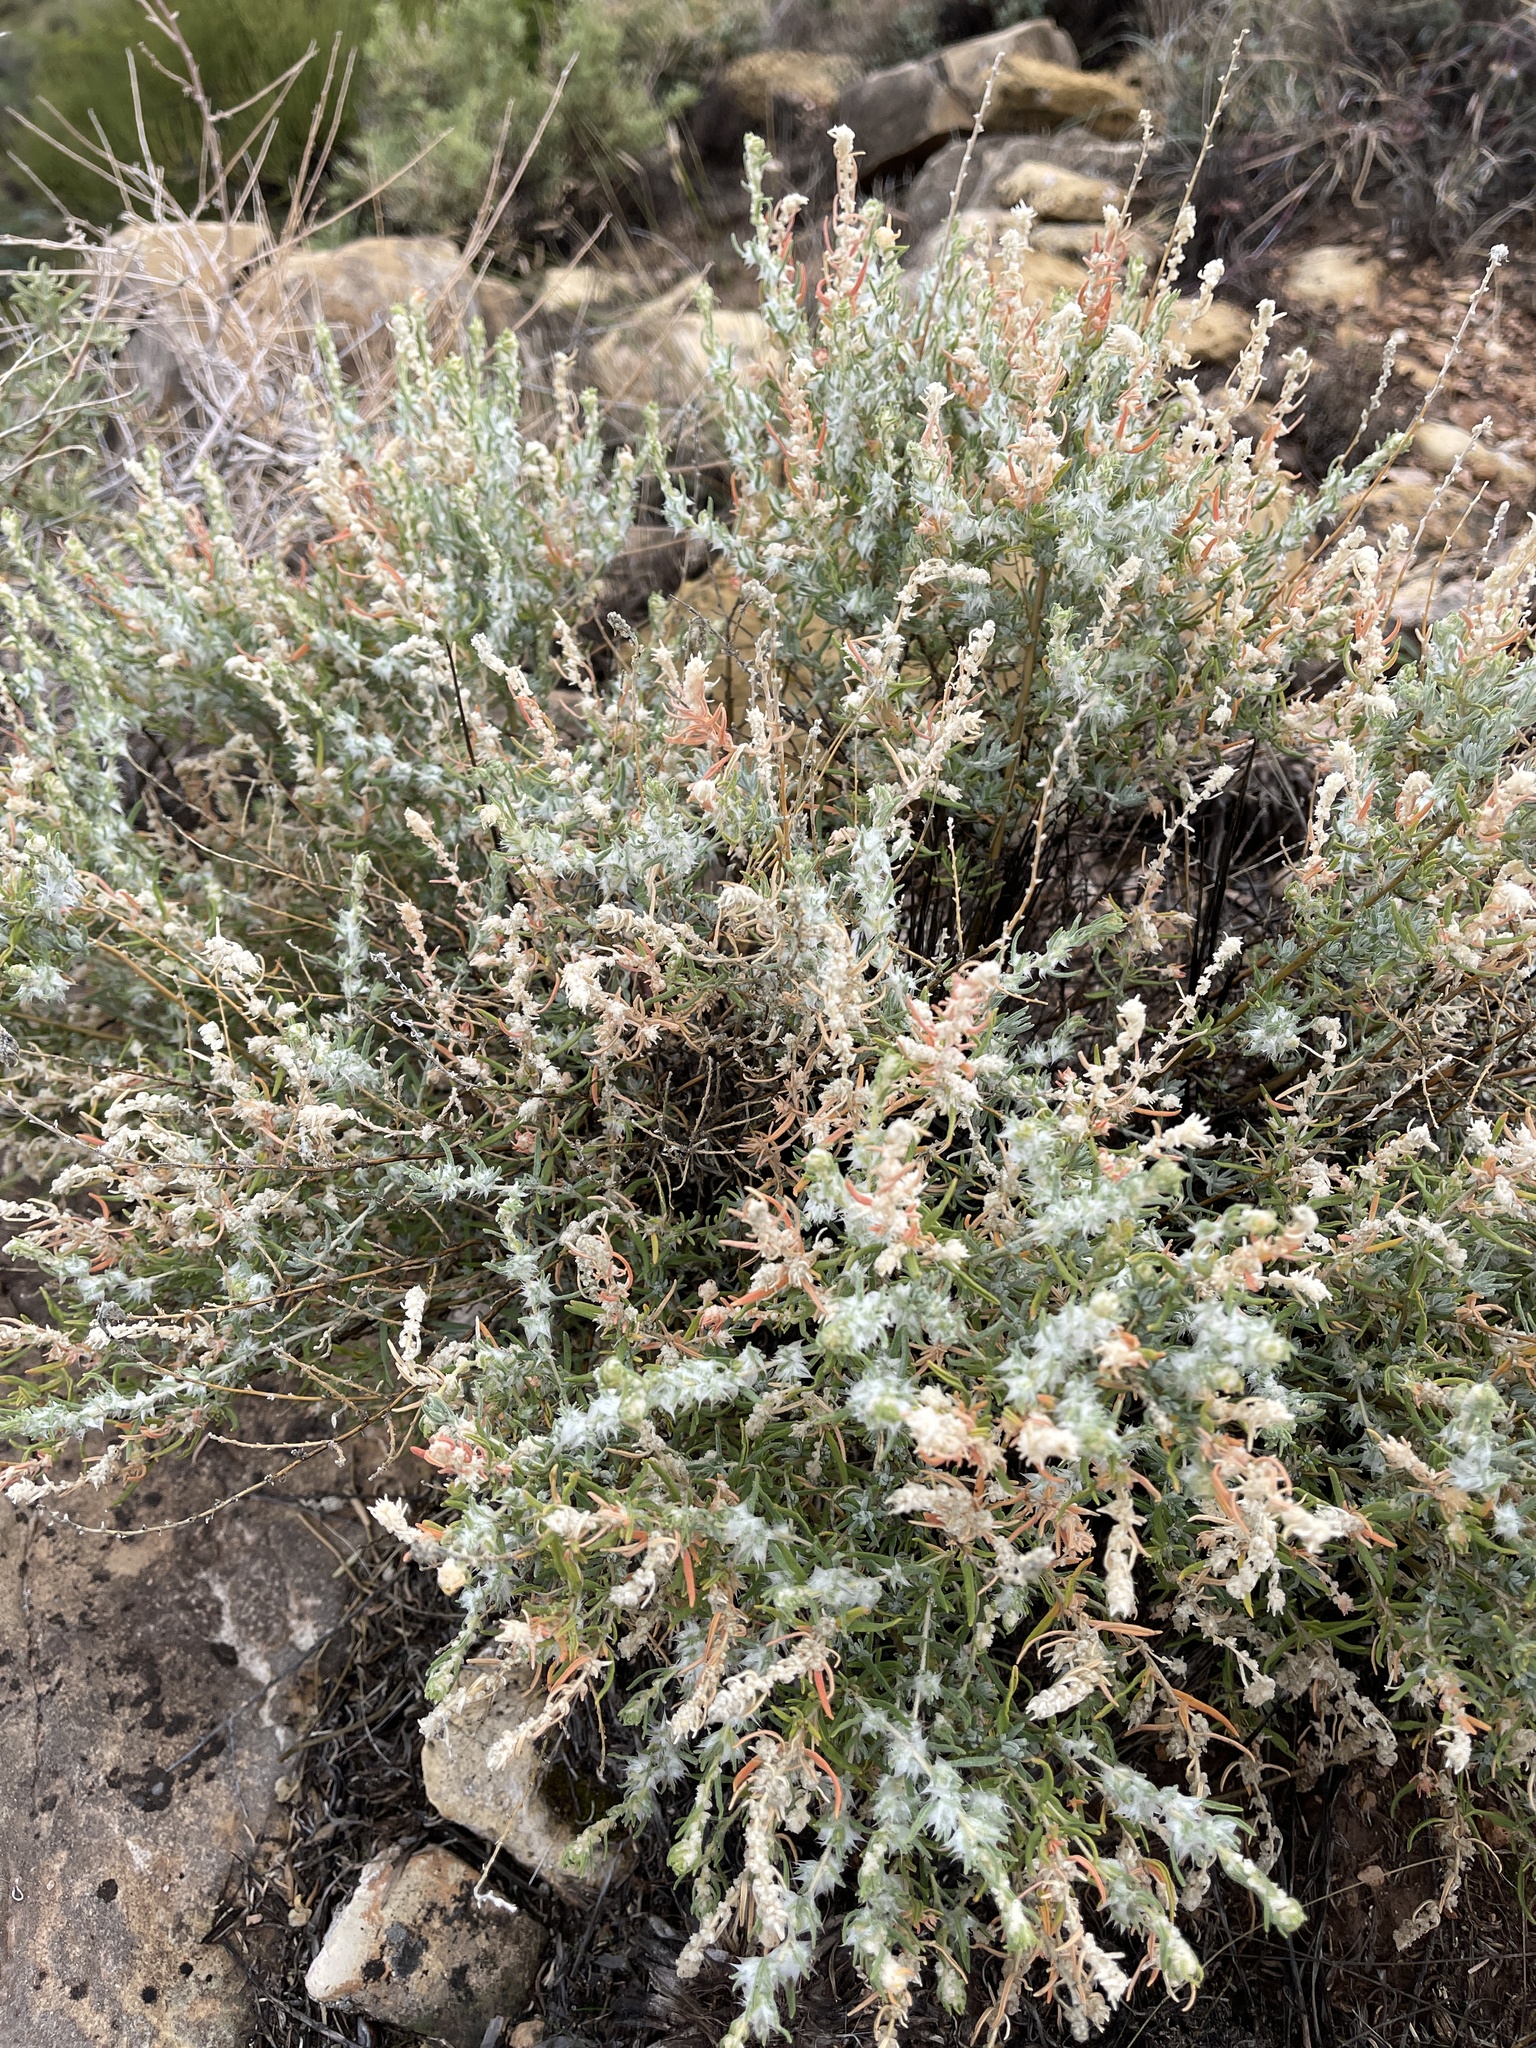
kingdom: Plantae
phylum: Tracheophyta
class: Magnoliopsida
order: Caryophyllales
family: Amaranthaceae
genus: Krascheninnikovia
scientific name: Krascheninnikovia lanata
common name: Winterfat
